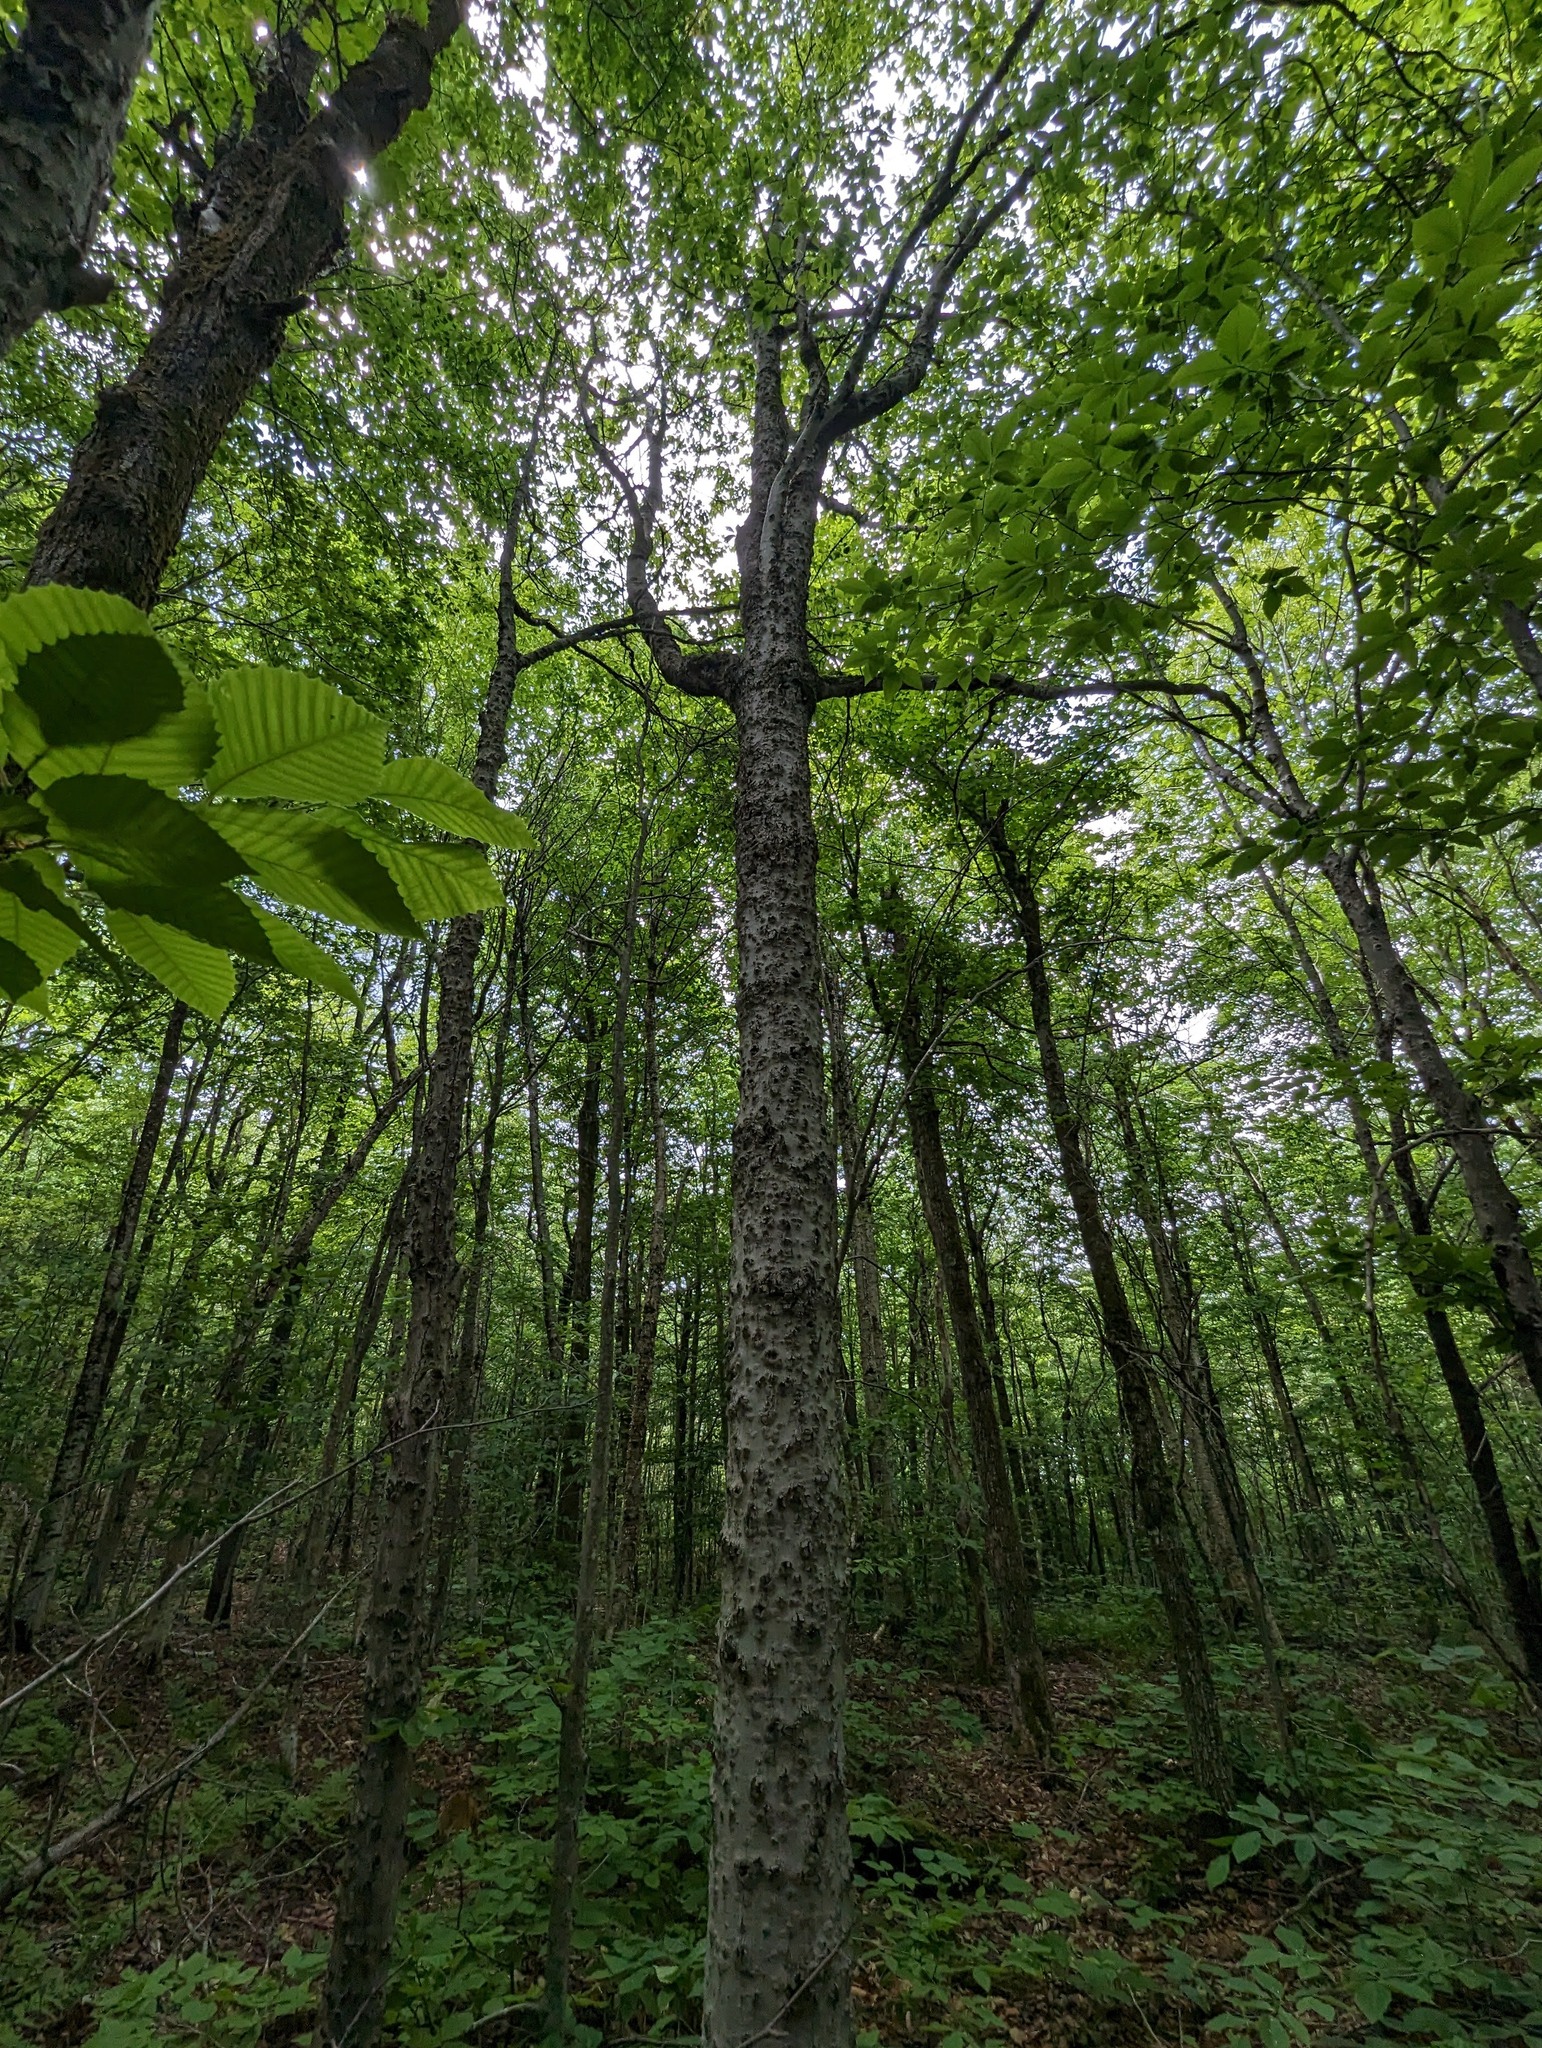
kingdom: Plantae
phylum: Tracheophyta
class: Magnoliopsida
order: Fagales
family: Fagaceae
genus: Fagus
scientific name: Fagus grandifolia
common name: American beech
